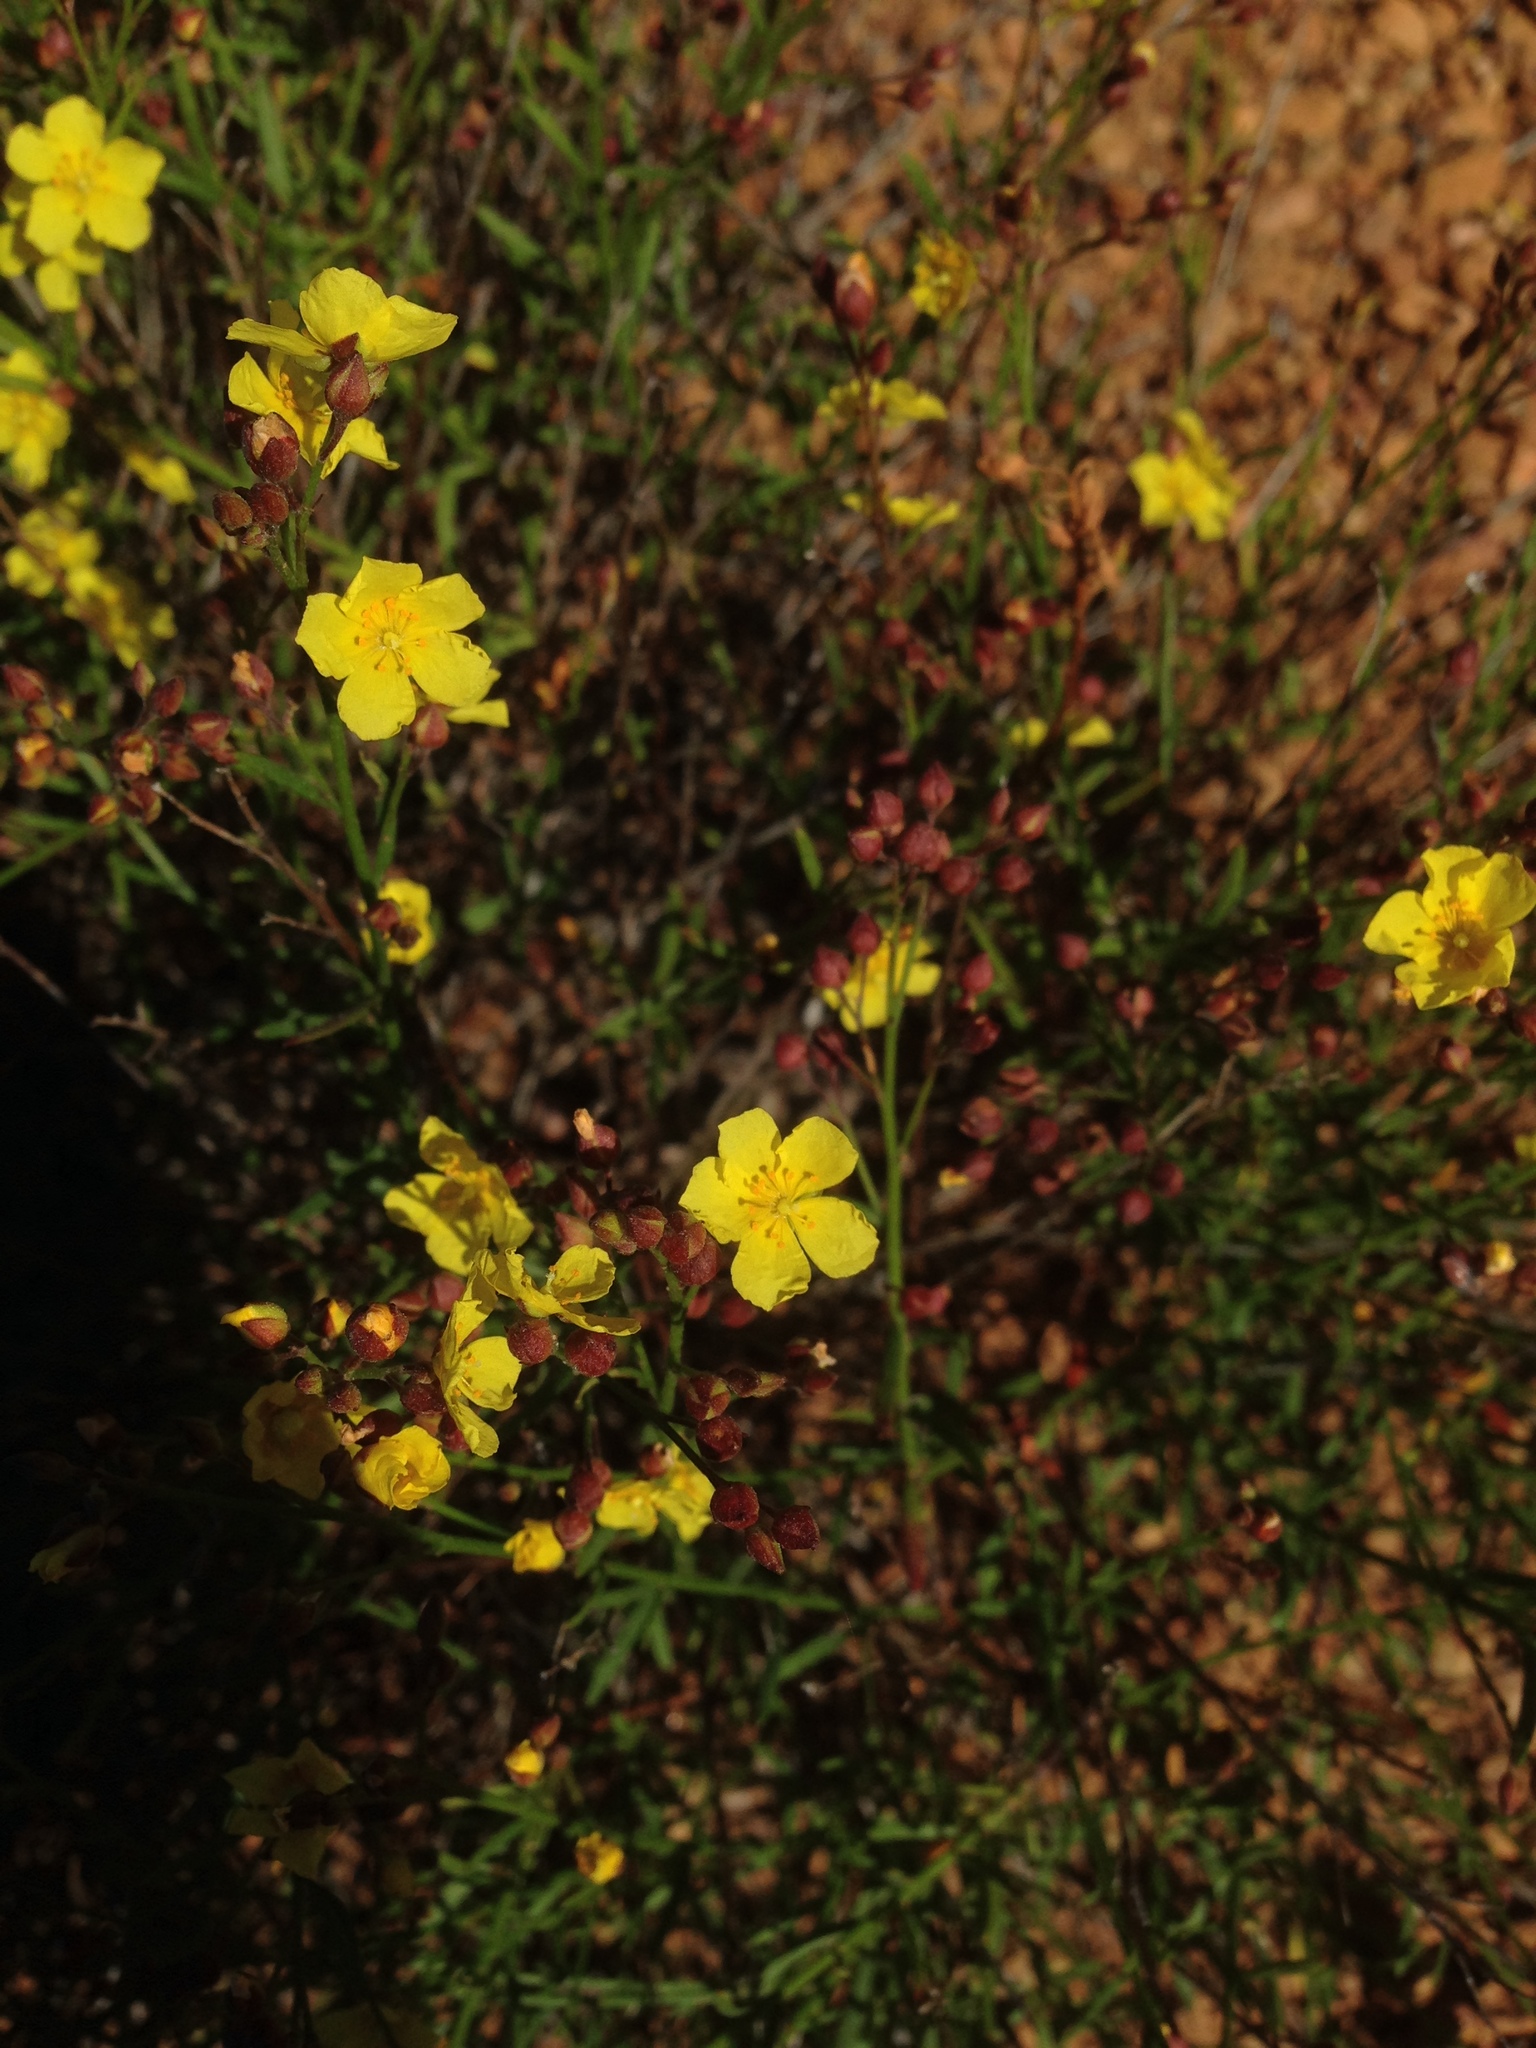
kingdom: Plantae
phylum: Tracheophyta
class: Magnoliopsida
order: Malvales
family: Cistaceae
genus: Crocanthemum
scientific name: Crocanthemum scoparium
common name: Broom-rose
